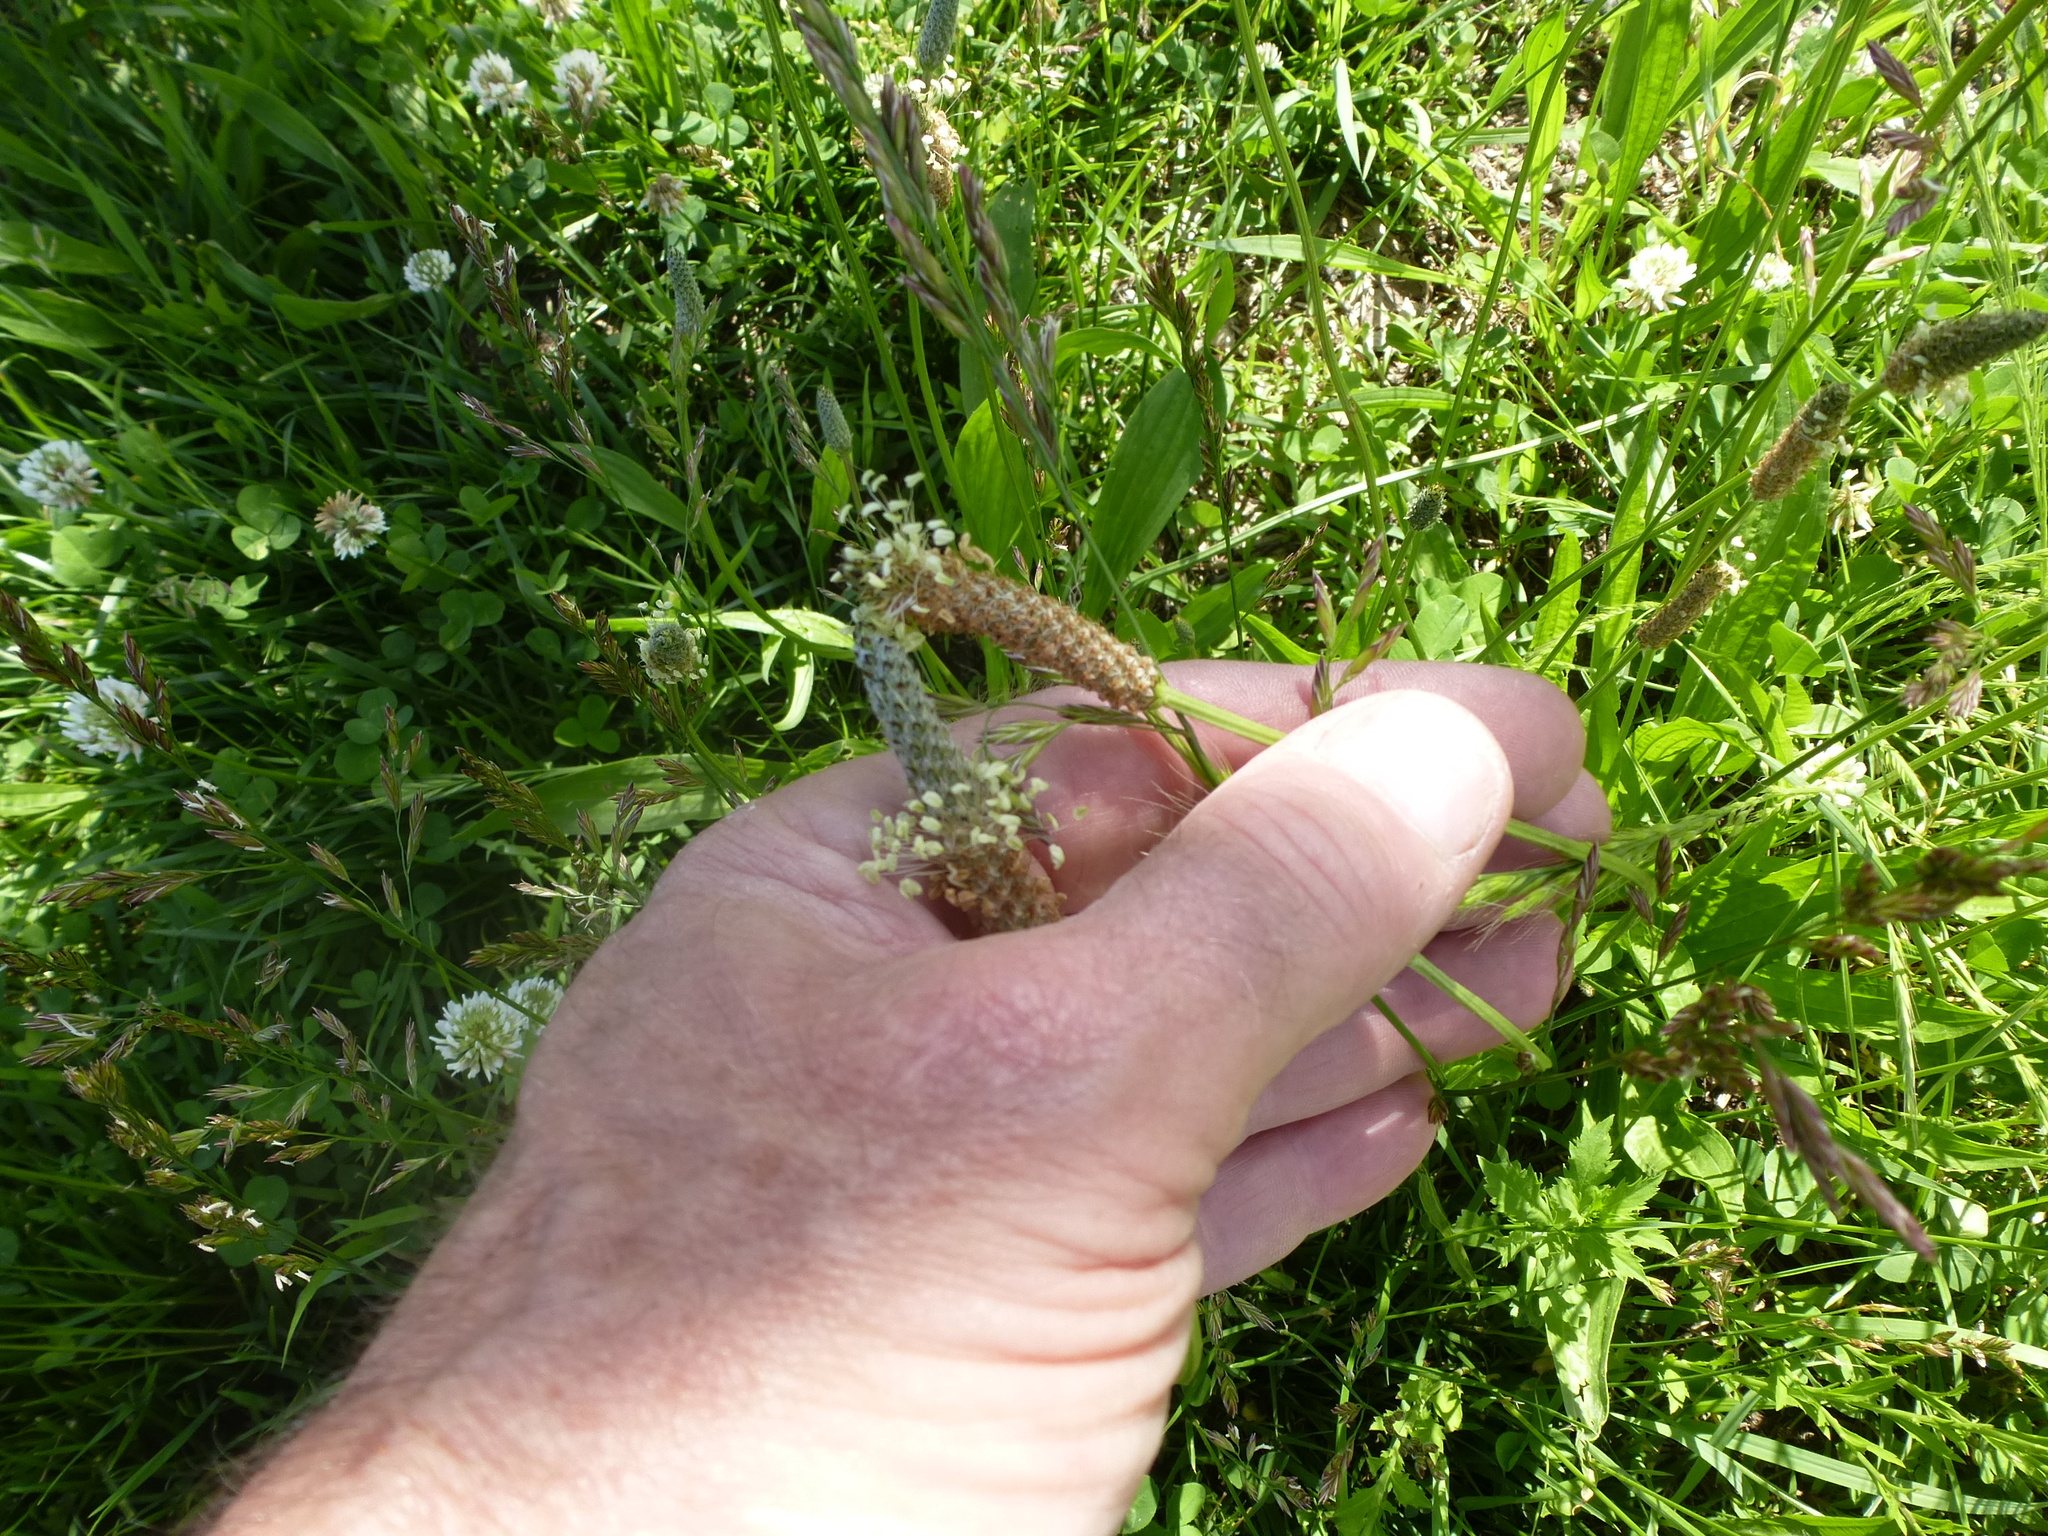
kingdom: Plantae
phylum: Tracheophyta
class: Magnoliopsida
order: Lamiales
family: Plantaginaceae
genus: Plantago
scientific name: Plantago lanceolata
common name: Ribwort plantain
